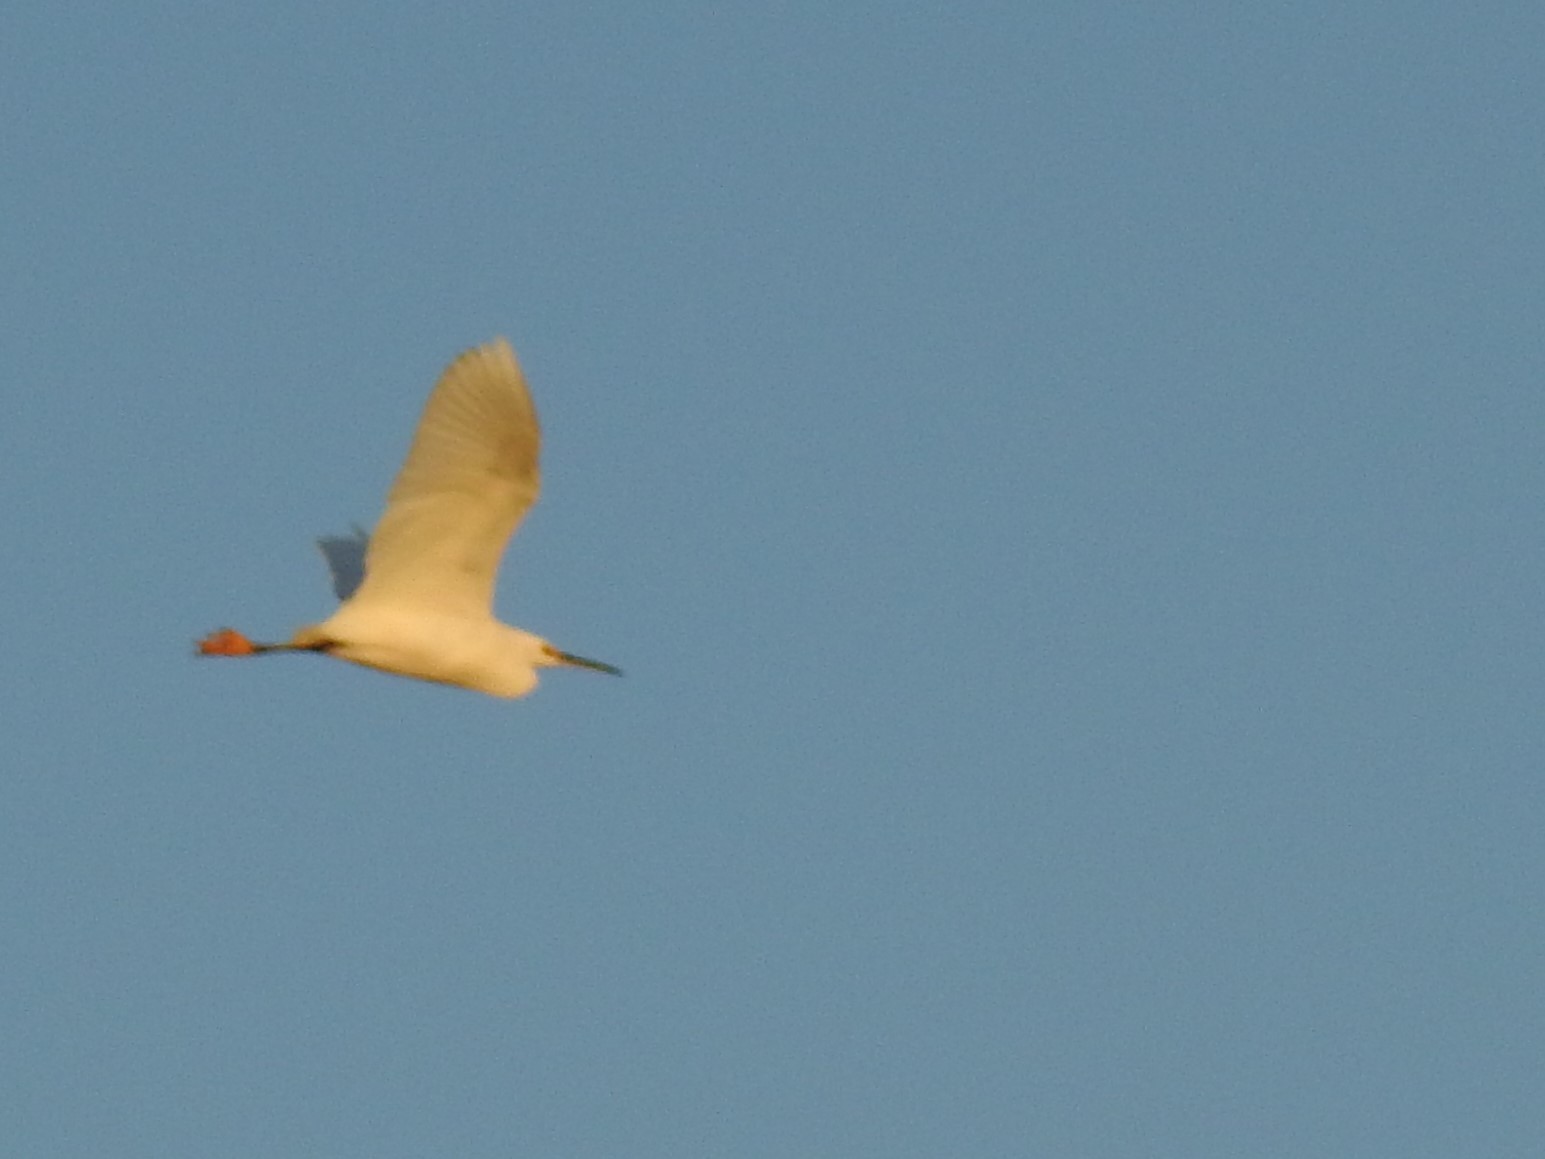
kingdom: Animalia
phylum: Chordata
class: Aves
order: Pelecaniformes
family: Ardeidae
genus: Egretta
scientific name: Egretta thula
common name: Snowy egret
